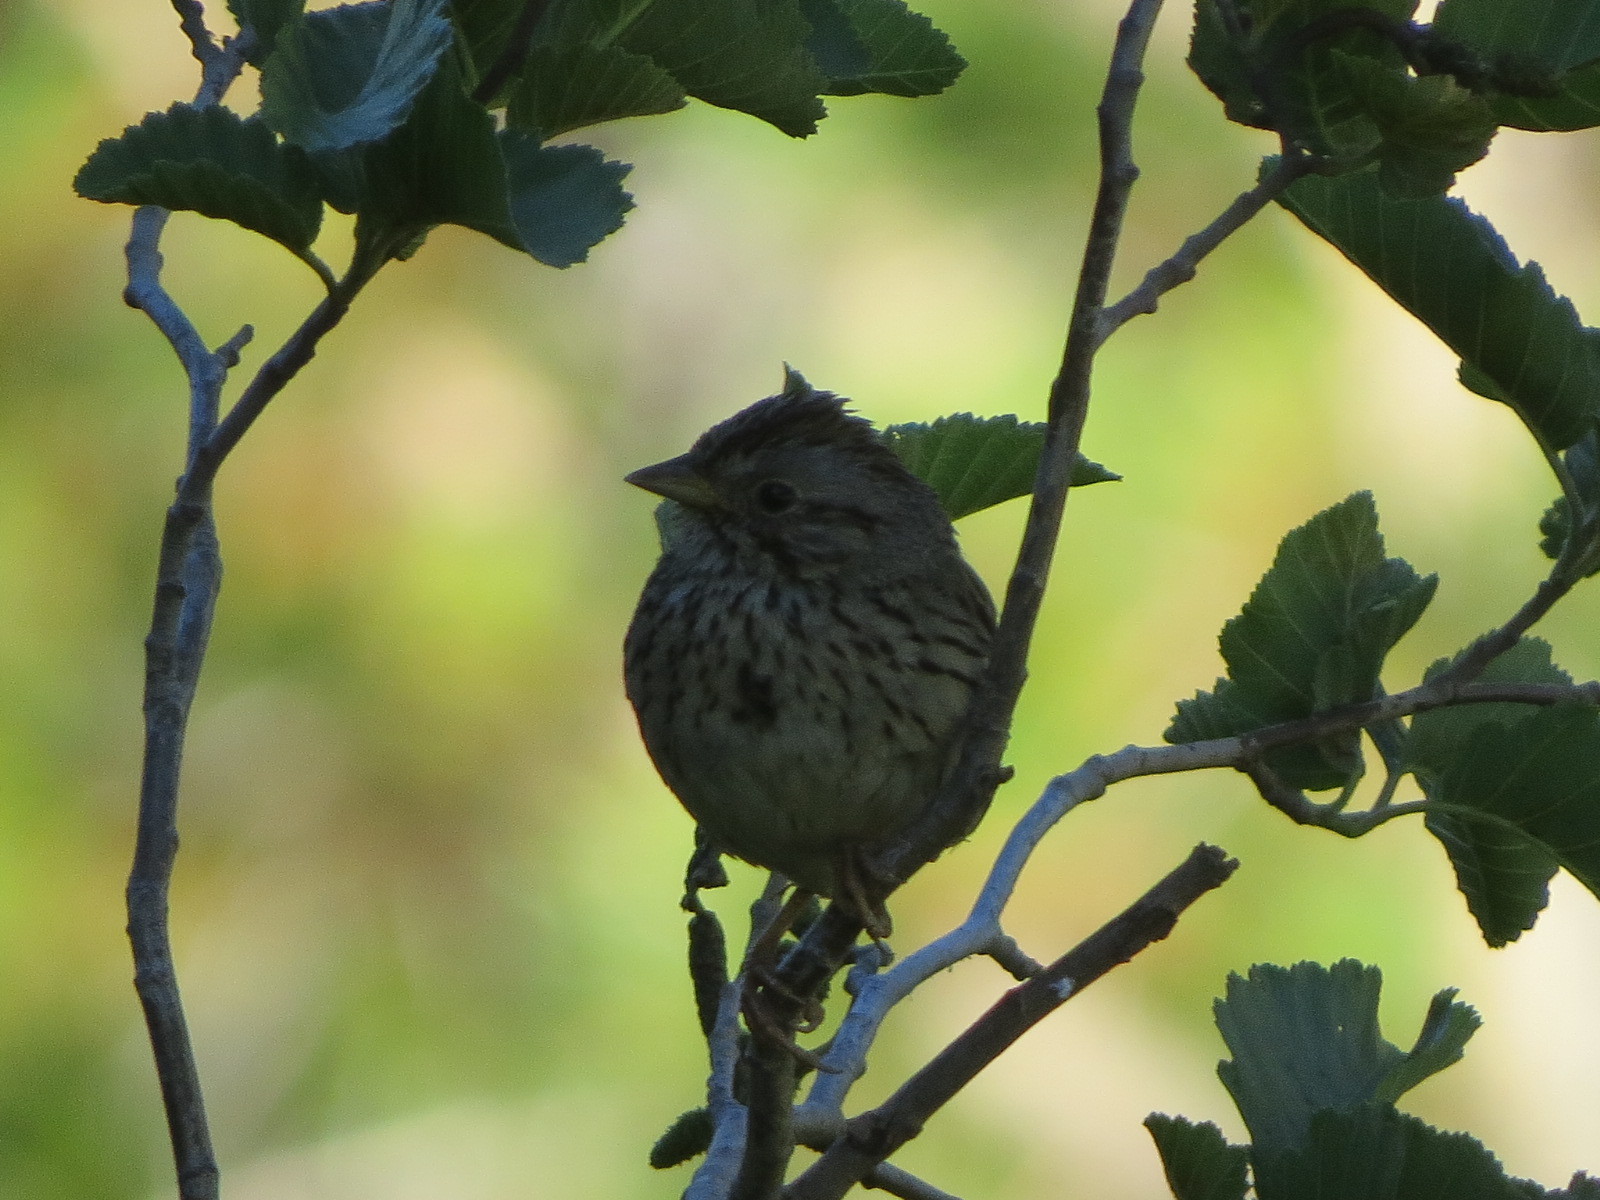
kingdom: Animalia
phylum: Chordata
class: Aves
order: Passeriformes
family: Passerellidae
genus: Melospiza
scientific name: Melospiza lincolnii
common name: Lincoln's sparrow
